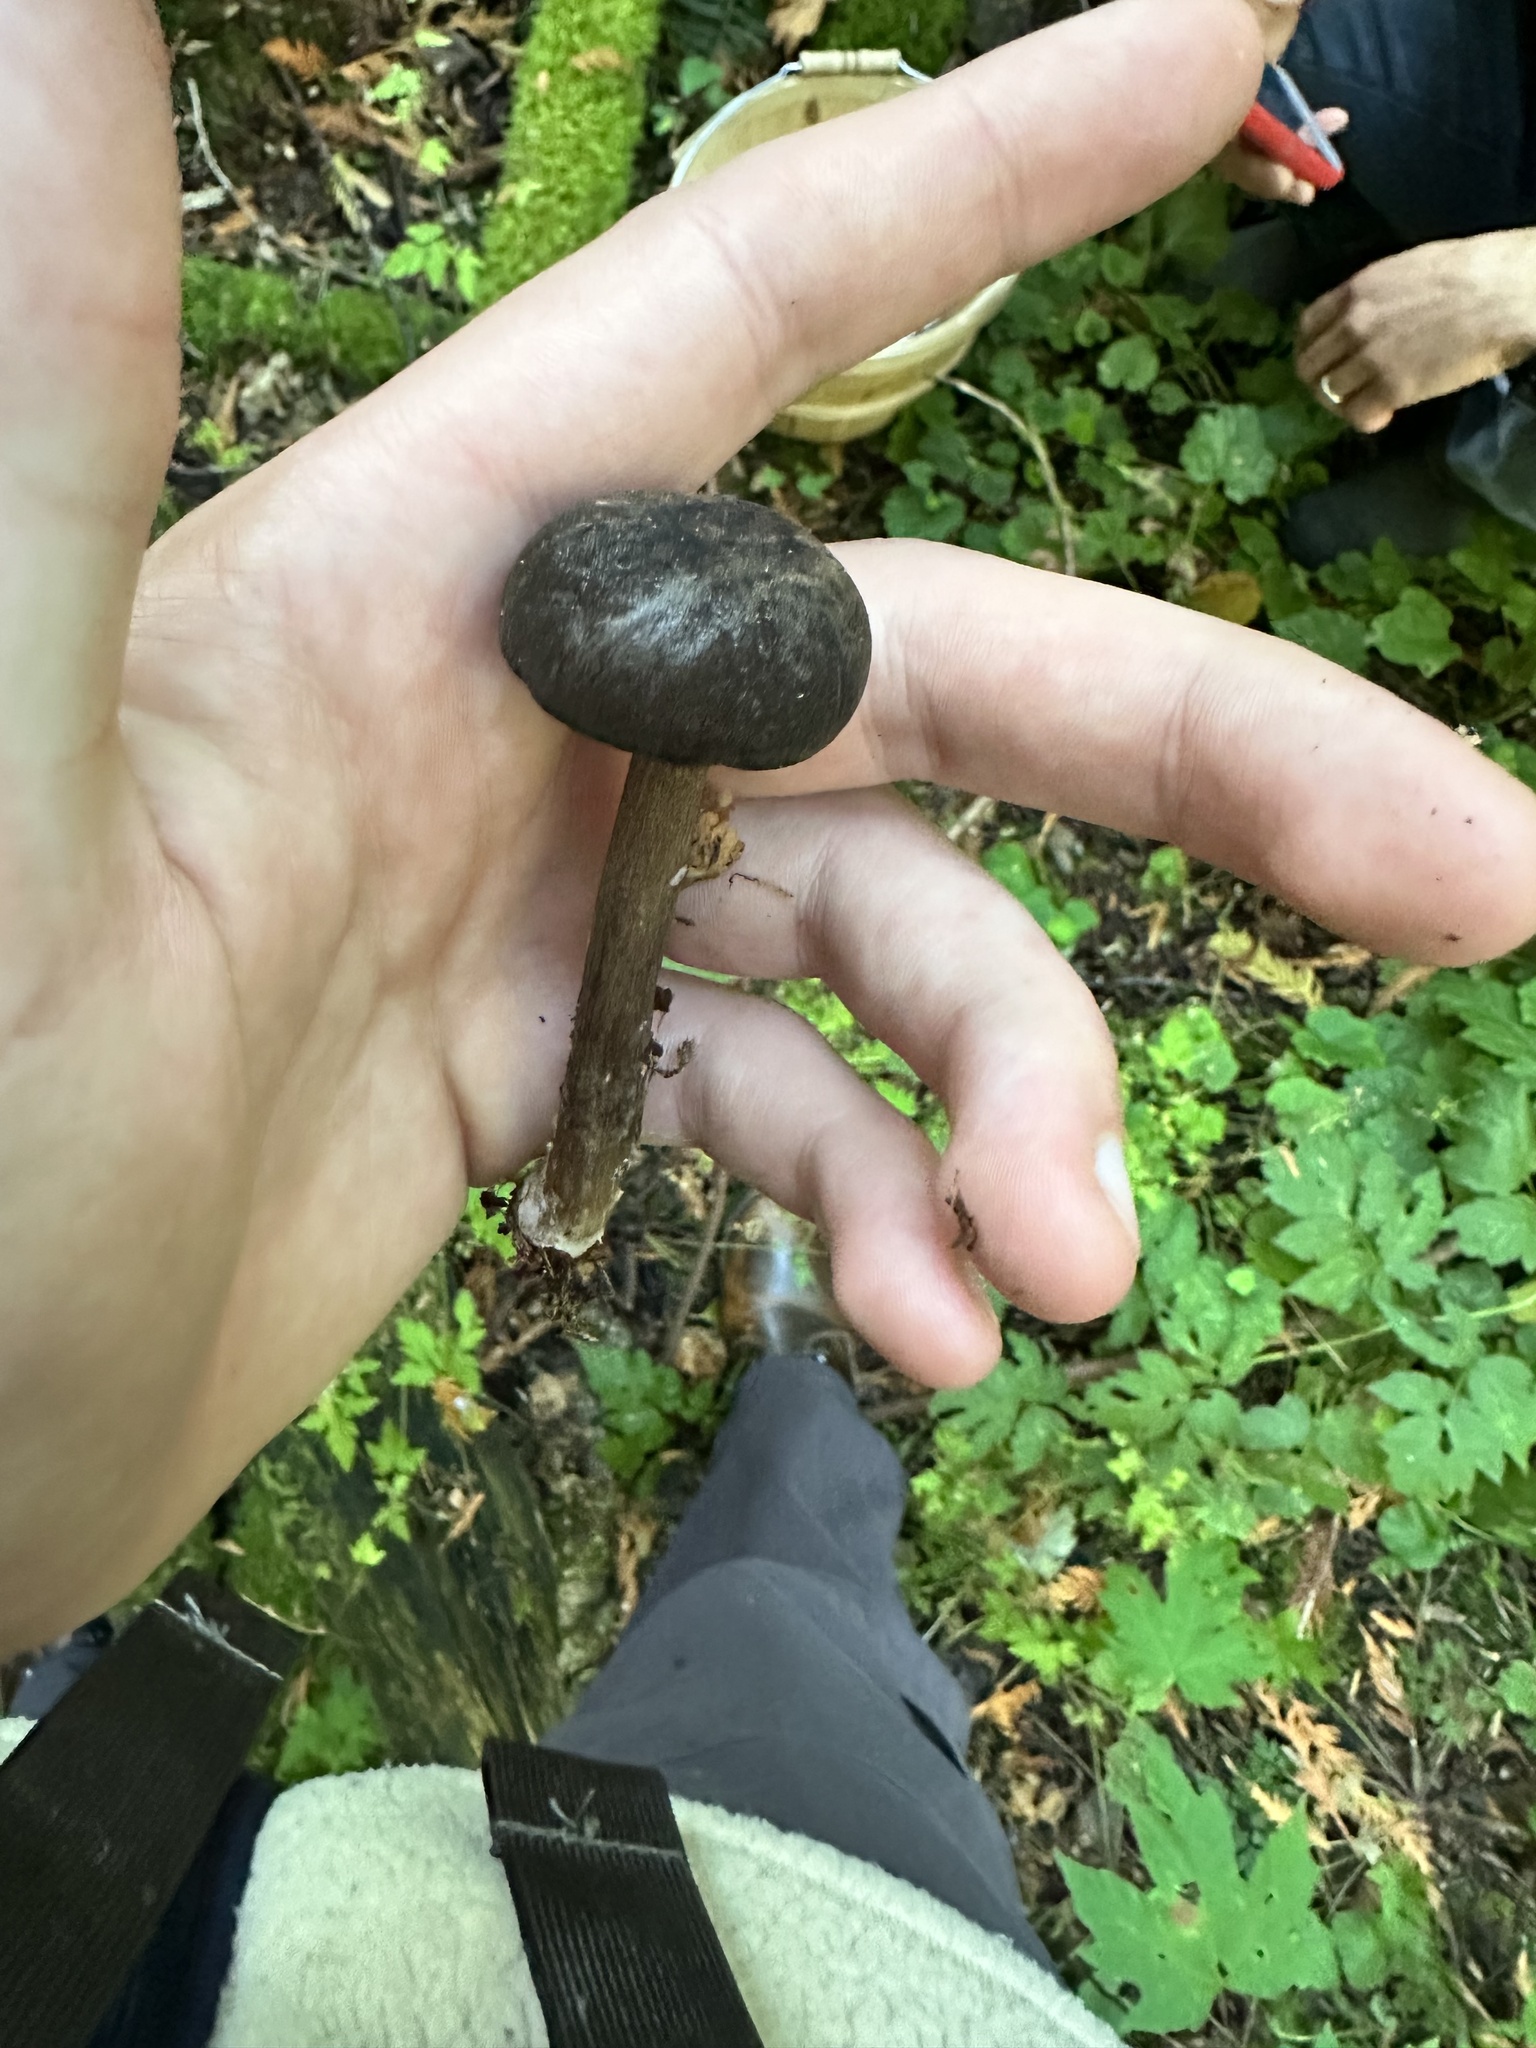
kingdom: Fungi
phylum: Basidiomycota
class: Agaricomycetes
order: Agaricales
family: Marasmiaceae
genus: Gerronema
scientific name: Gerronema atrialbum
